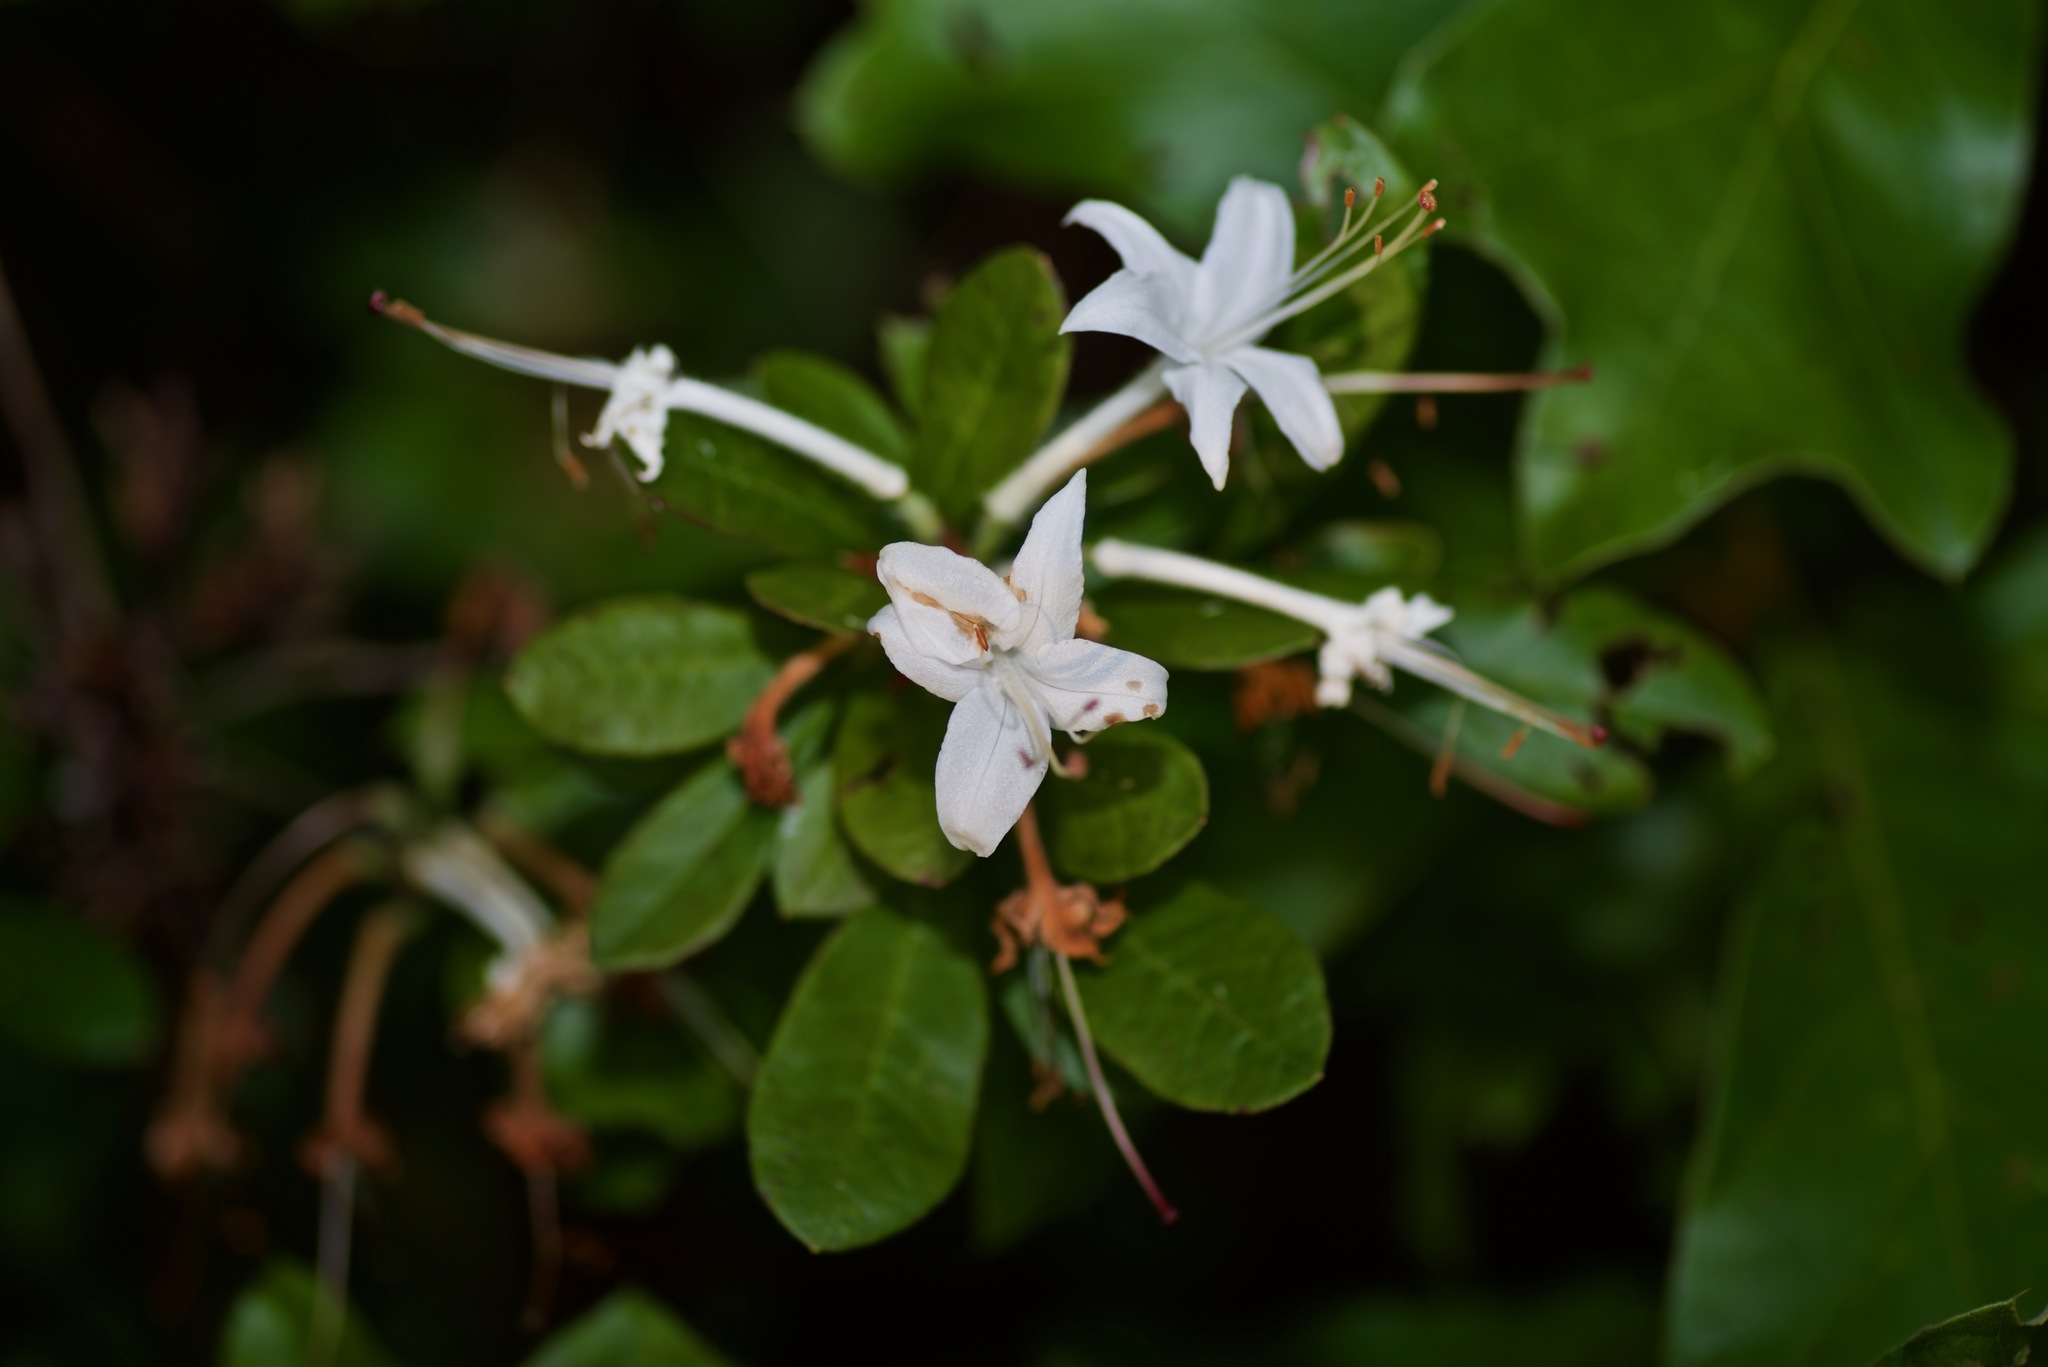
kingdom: Plantae
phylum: Tracheophyta
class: Magnoliopsida
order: Ericales
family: Ericaceae
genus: Rhododendron
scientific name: Rhododendron viscosum
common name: Clammy azalea
